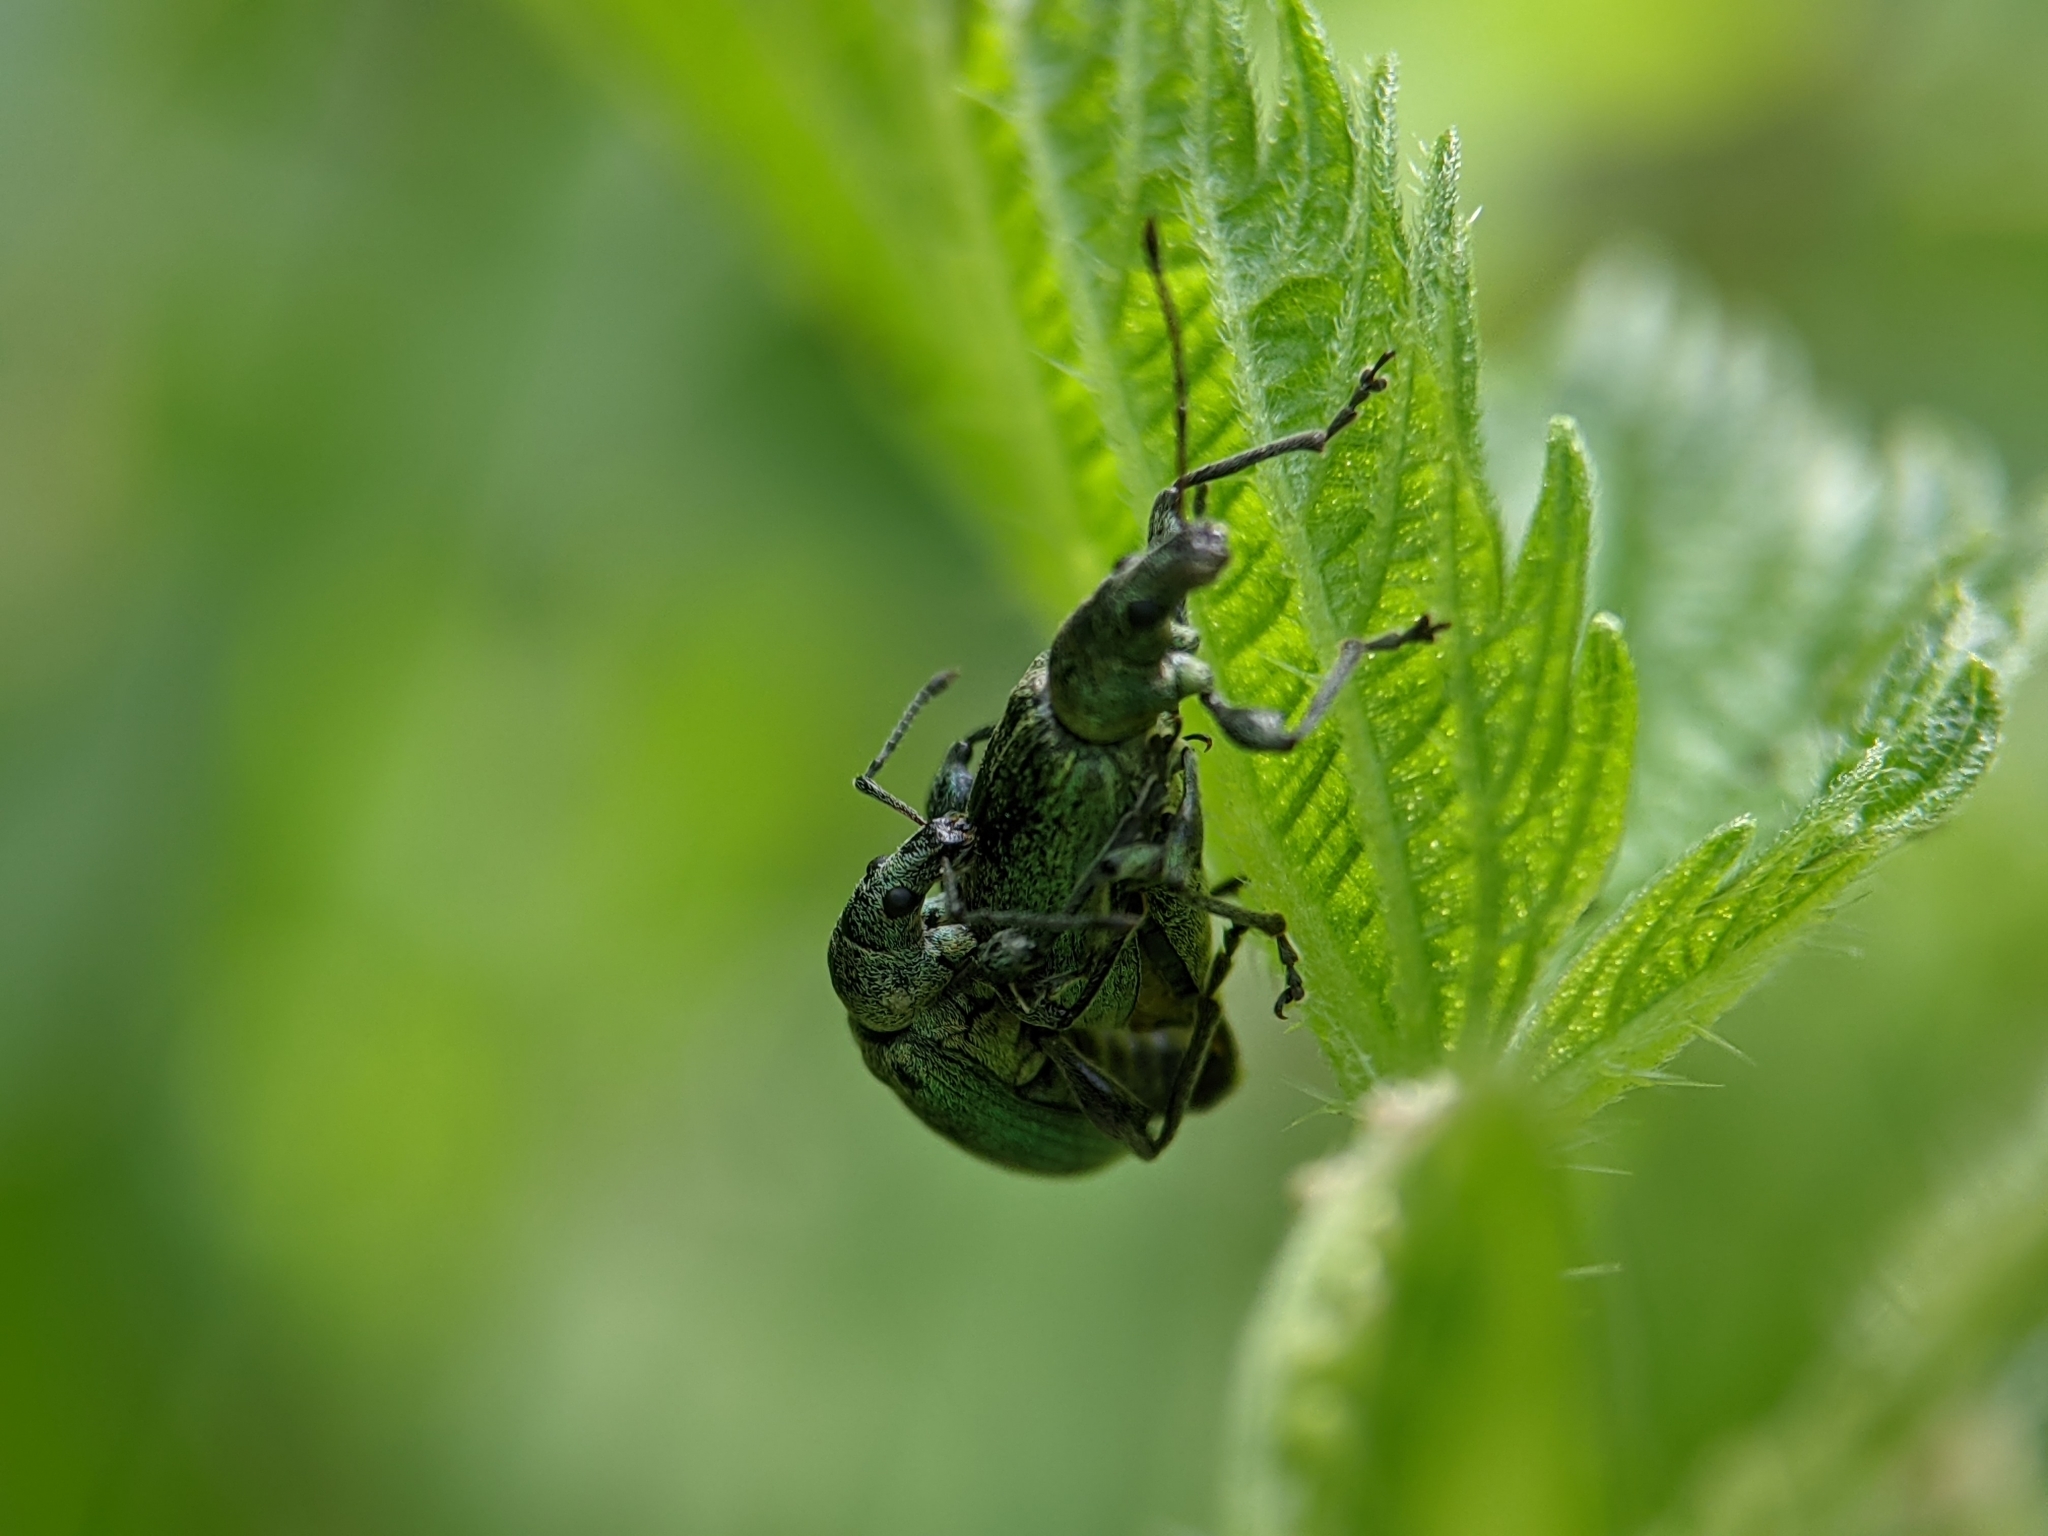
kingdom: Animalia
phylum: Arthropoda
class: Insecta
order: Coleoptera
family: Curculionidae
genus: Phyllobius
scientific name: Phyllobius pomaceus
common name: Green nettle weevil
